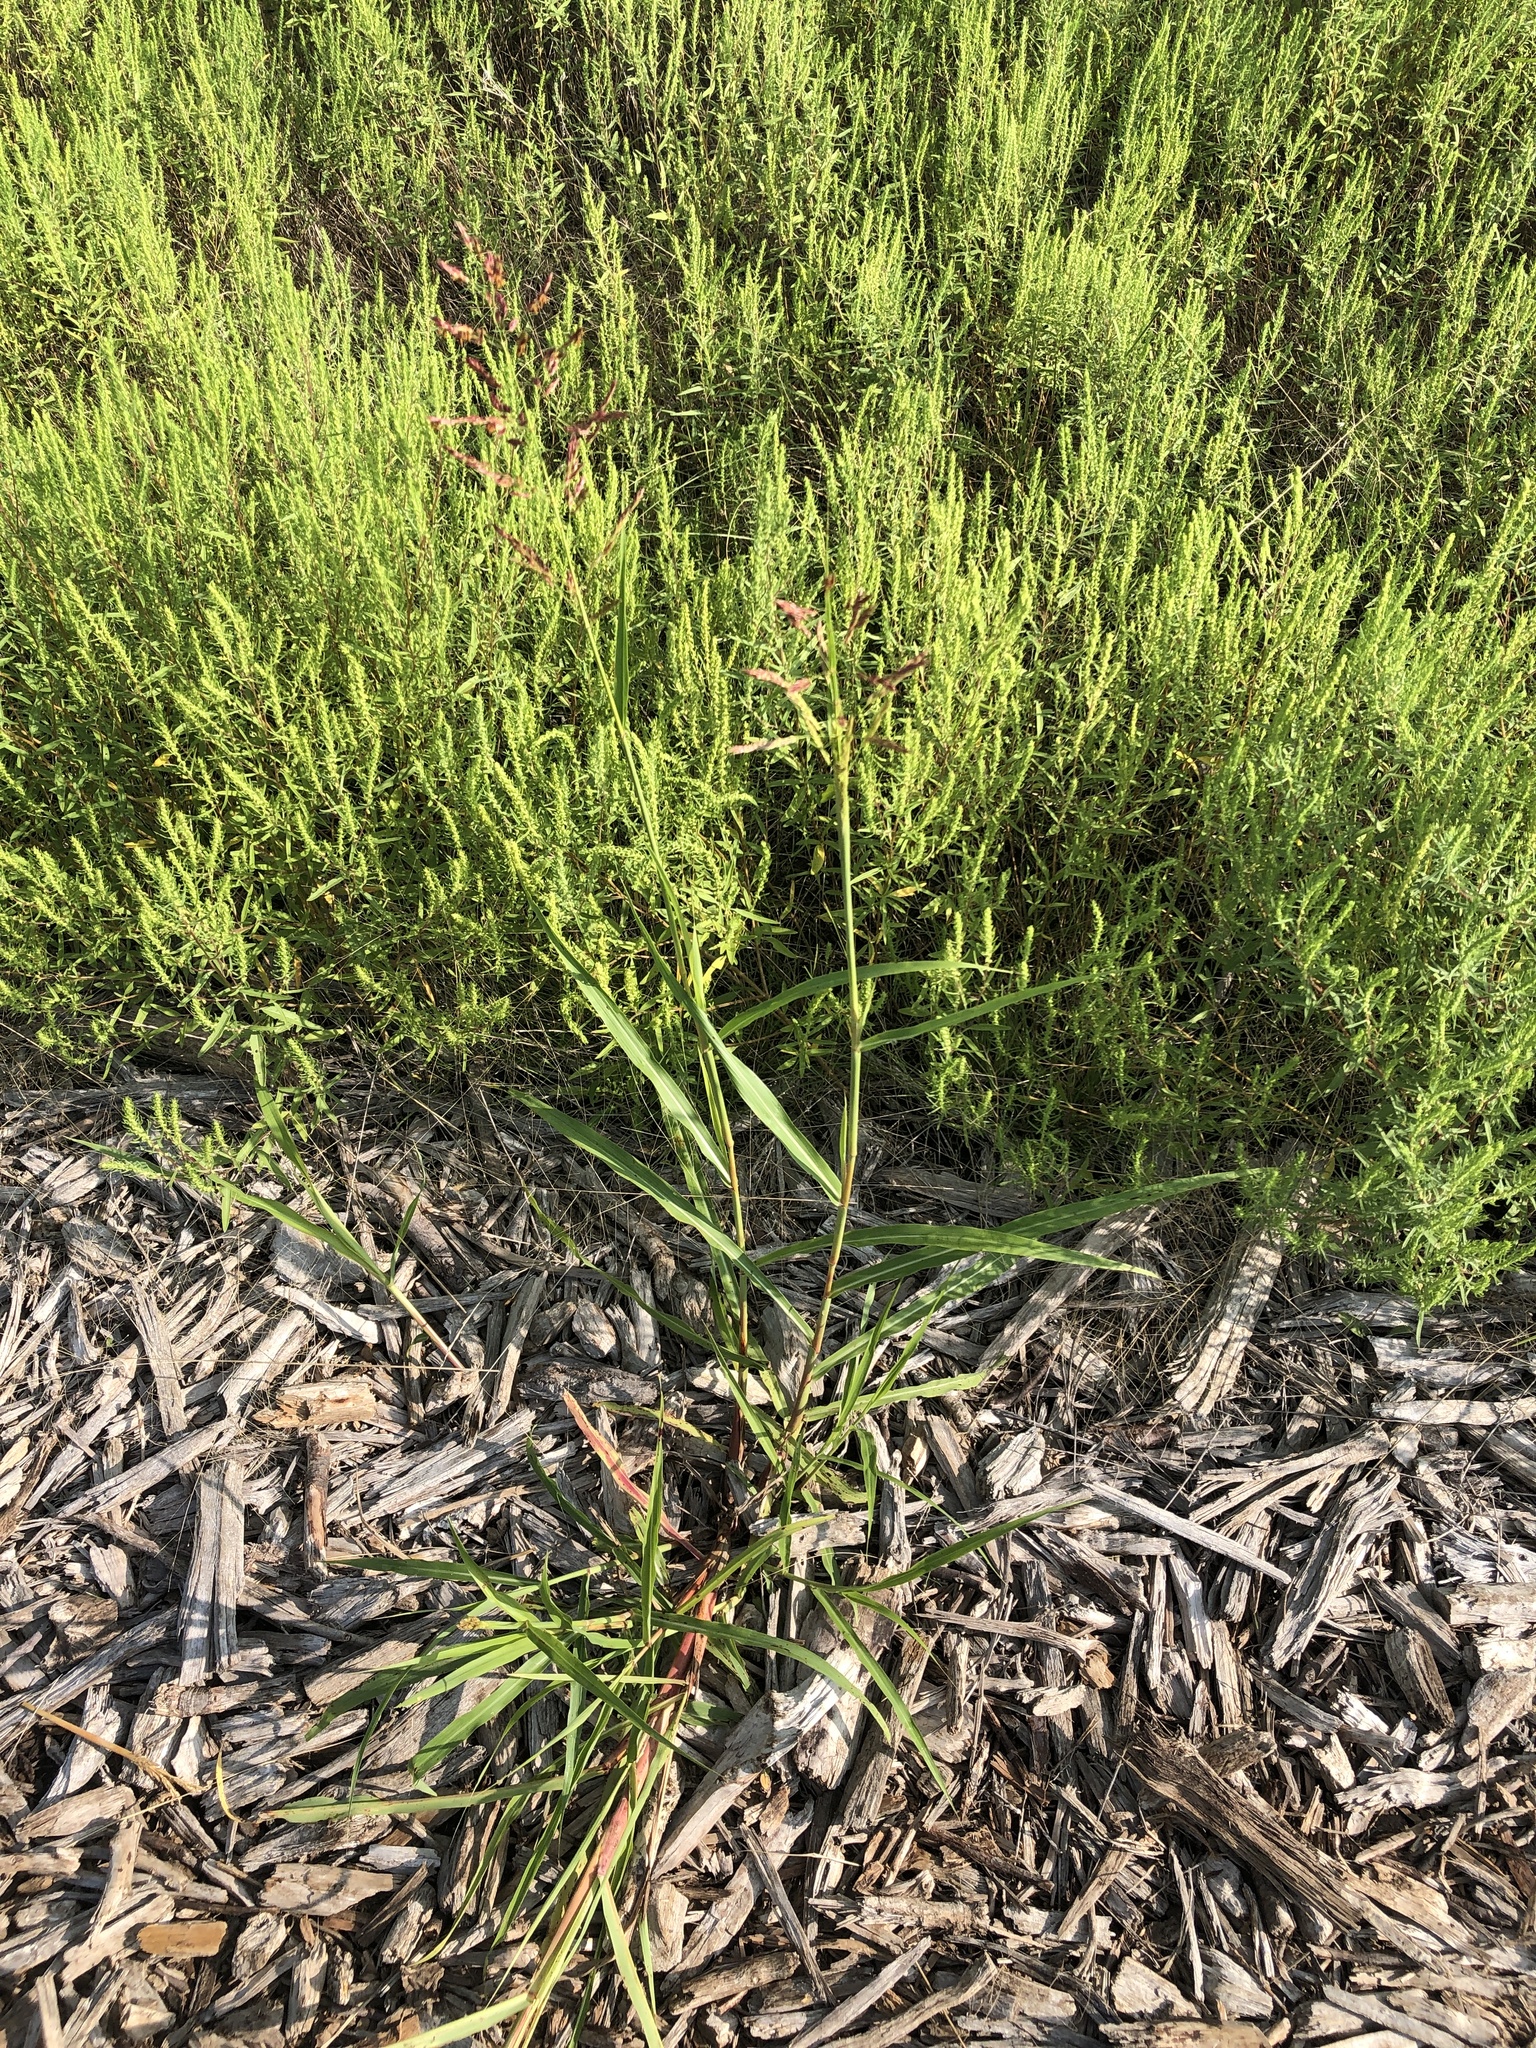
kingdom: Plantae
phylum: Tracheophyta
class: Liliopsida
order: Poales
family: Poaceae
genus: Sorghum
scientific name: Sorghum halepense
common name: Johnson-grass
